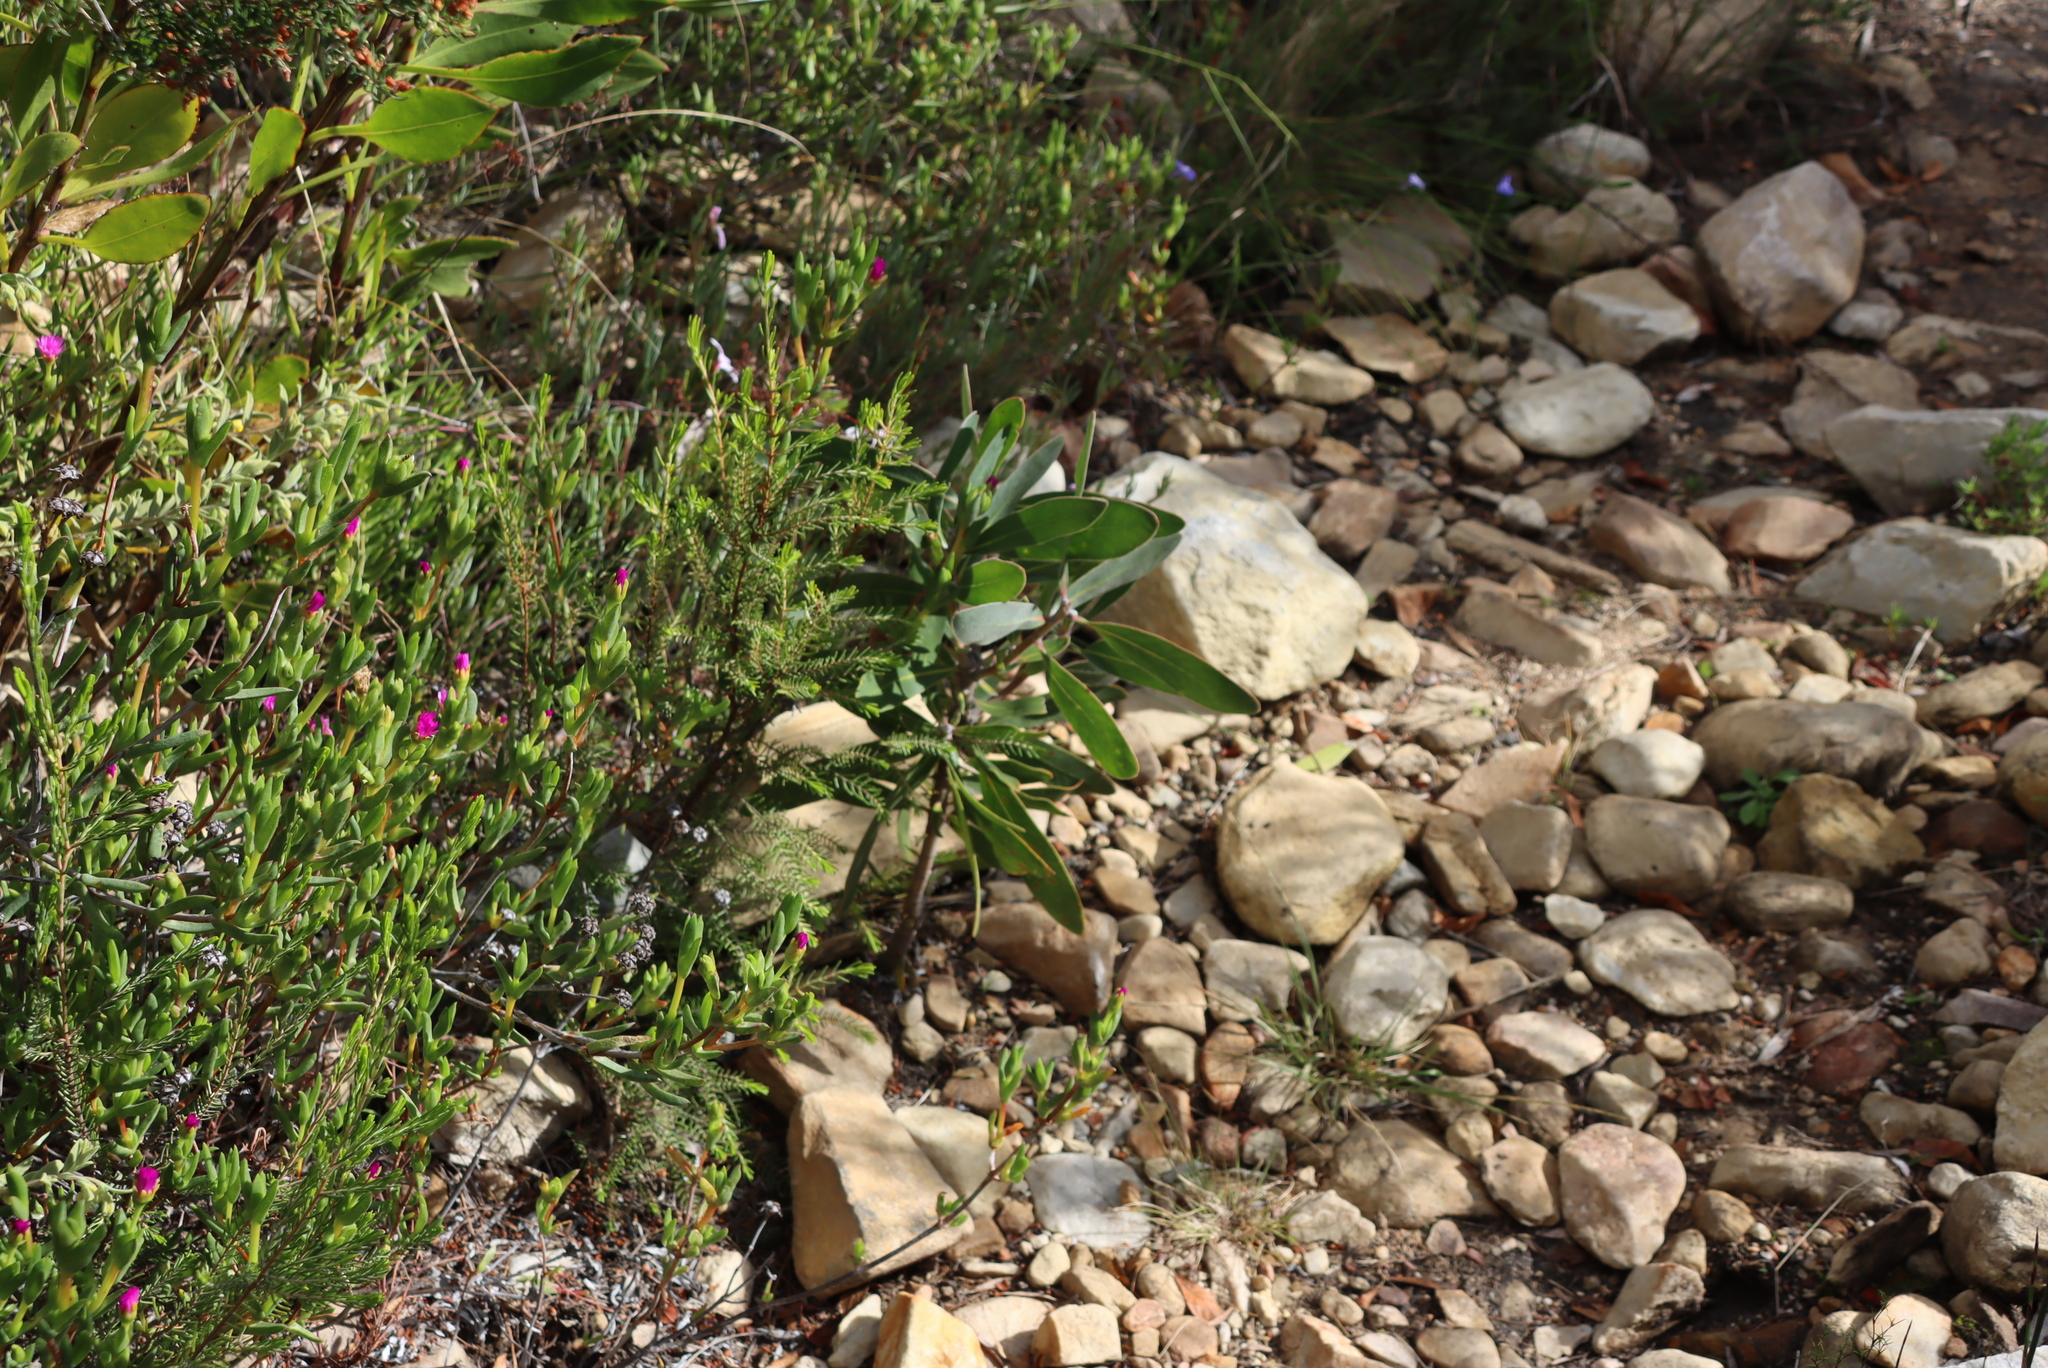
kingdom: Plantae
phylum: Tracheophyta
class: Magnoliopsida
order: Proteales
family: Proteaceae
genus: Protea
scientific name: Protea lorifolia
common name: Strap-leaved protea
